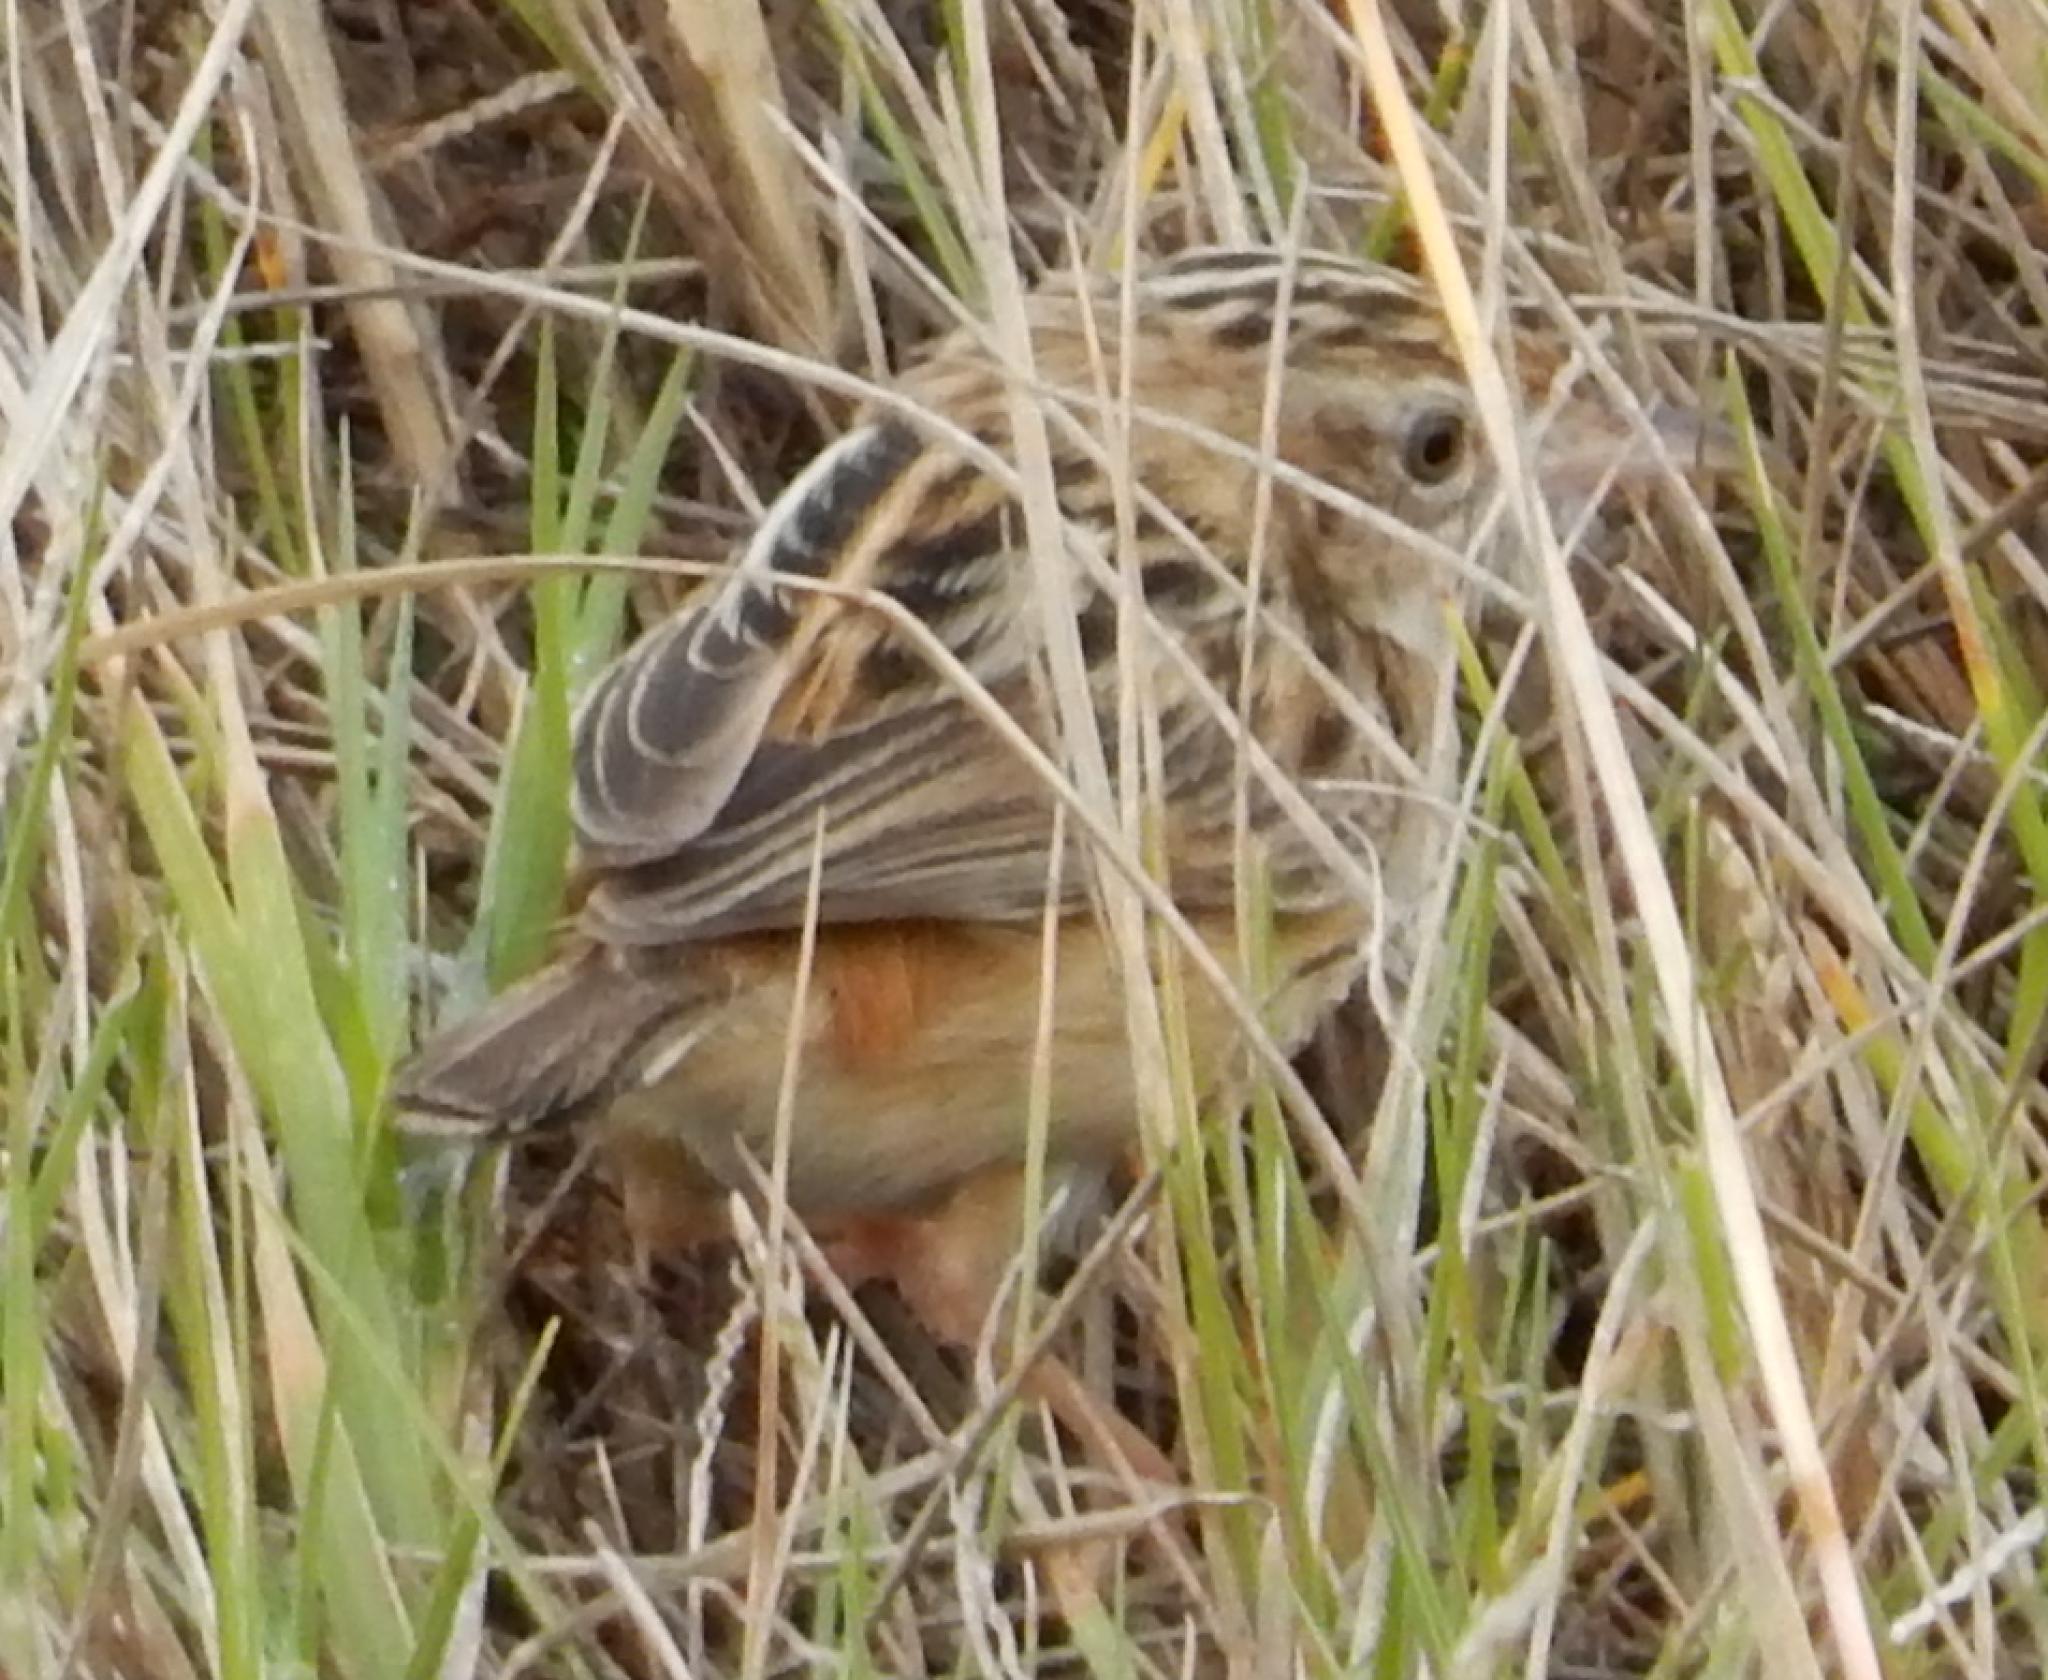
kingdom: Animalia
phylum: Chordata
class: Aves
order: Passeriformes
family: Cisticolidae
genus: Cisticola
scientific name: Cisticola juncidis
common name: Zitting cisticola
